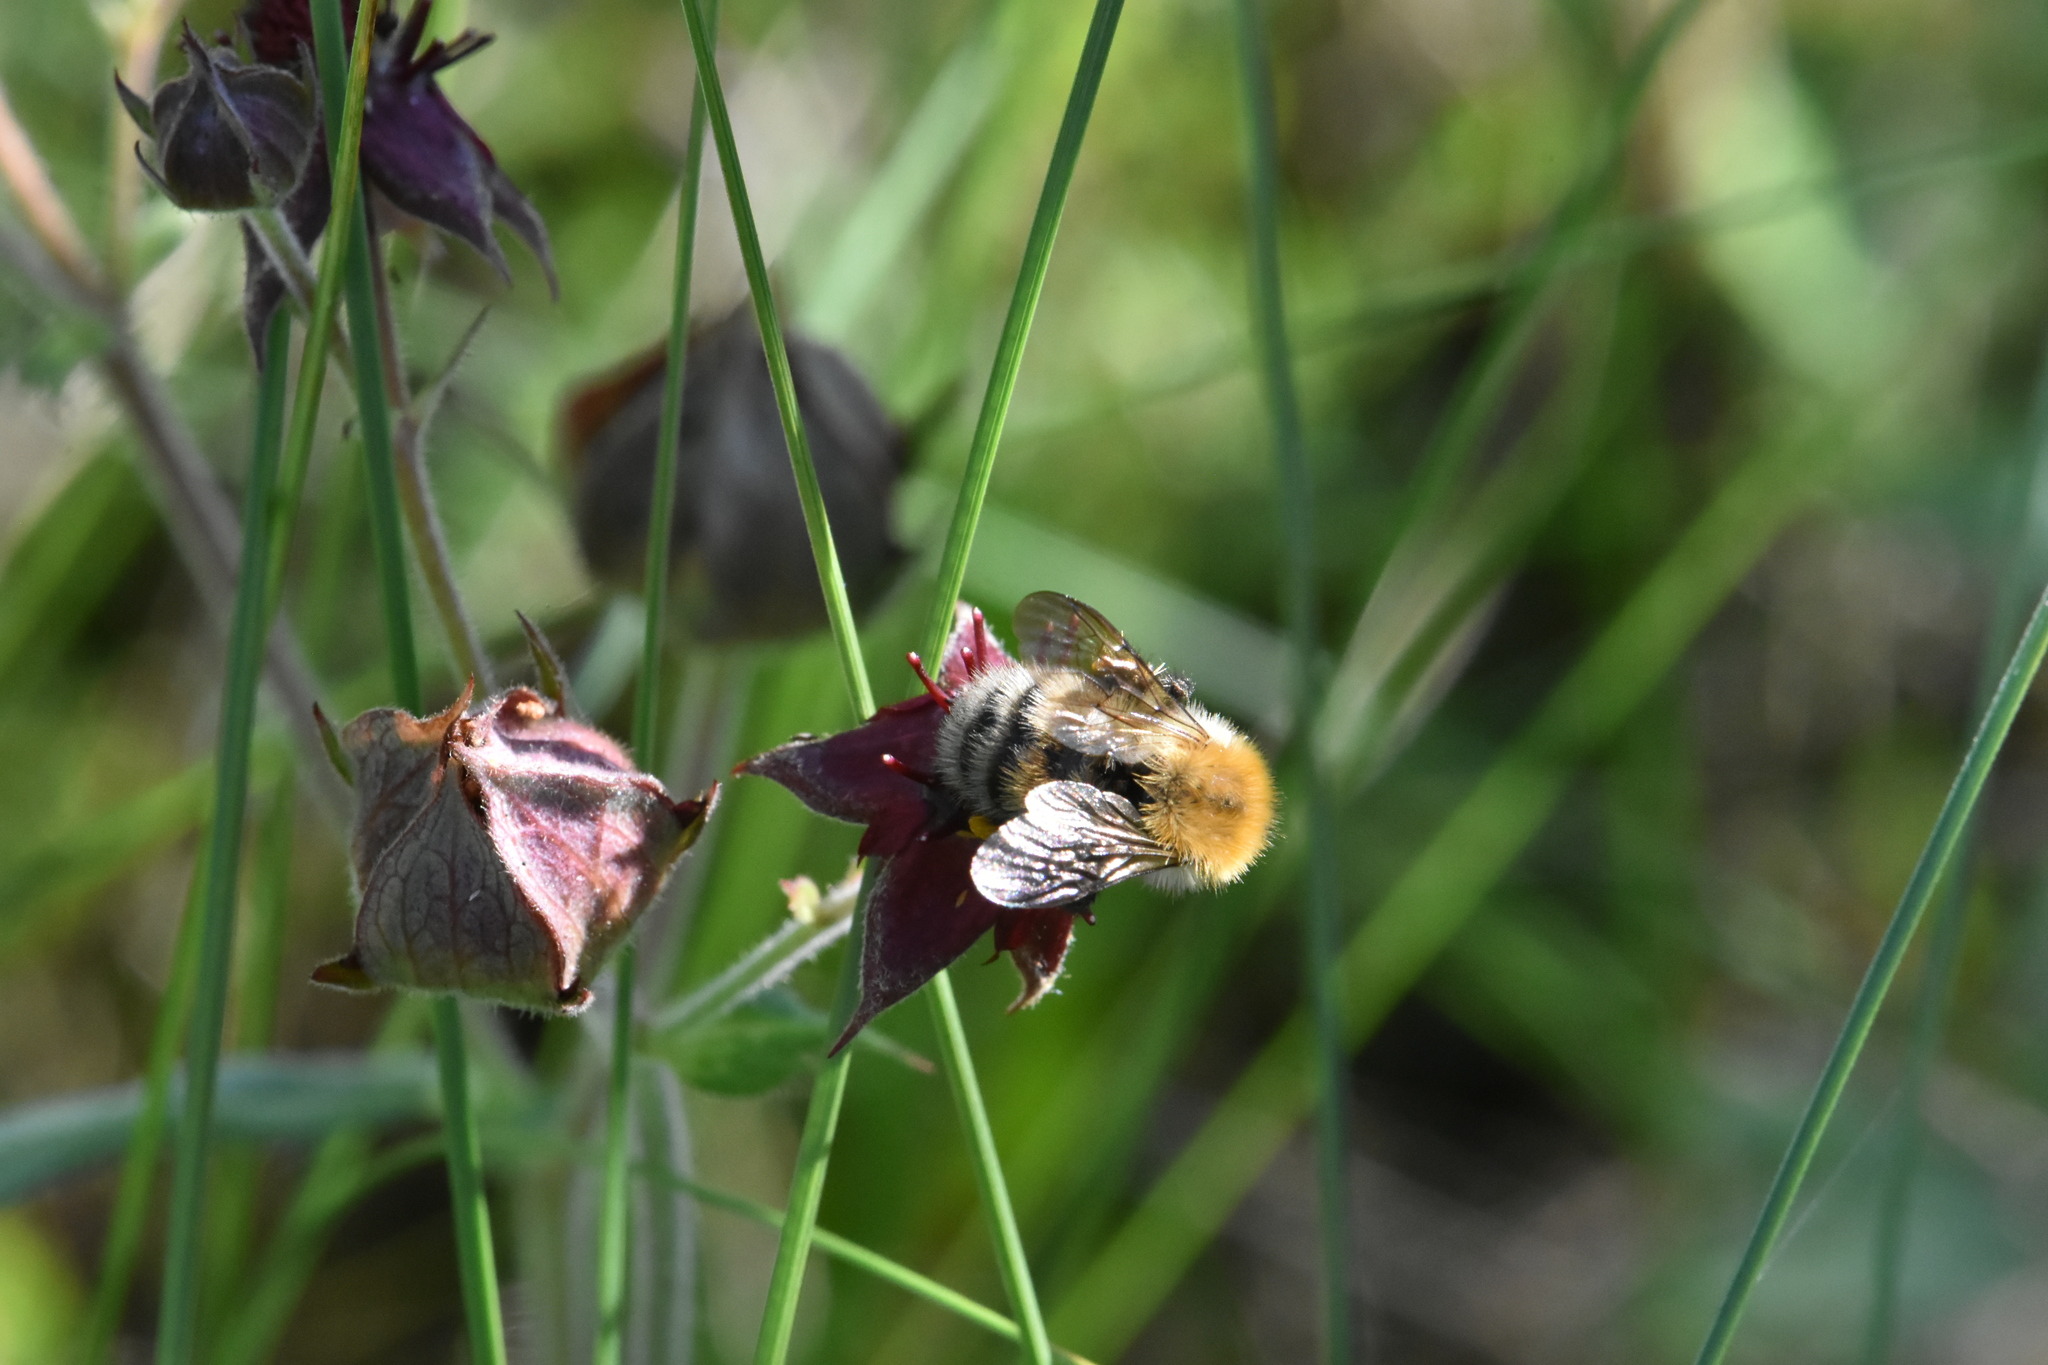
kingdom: Animalia
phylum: Arthropoda
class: Insecta
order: Hymenoptera
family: Apidae
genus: Bombus
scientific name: Bombus schrencki
